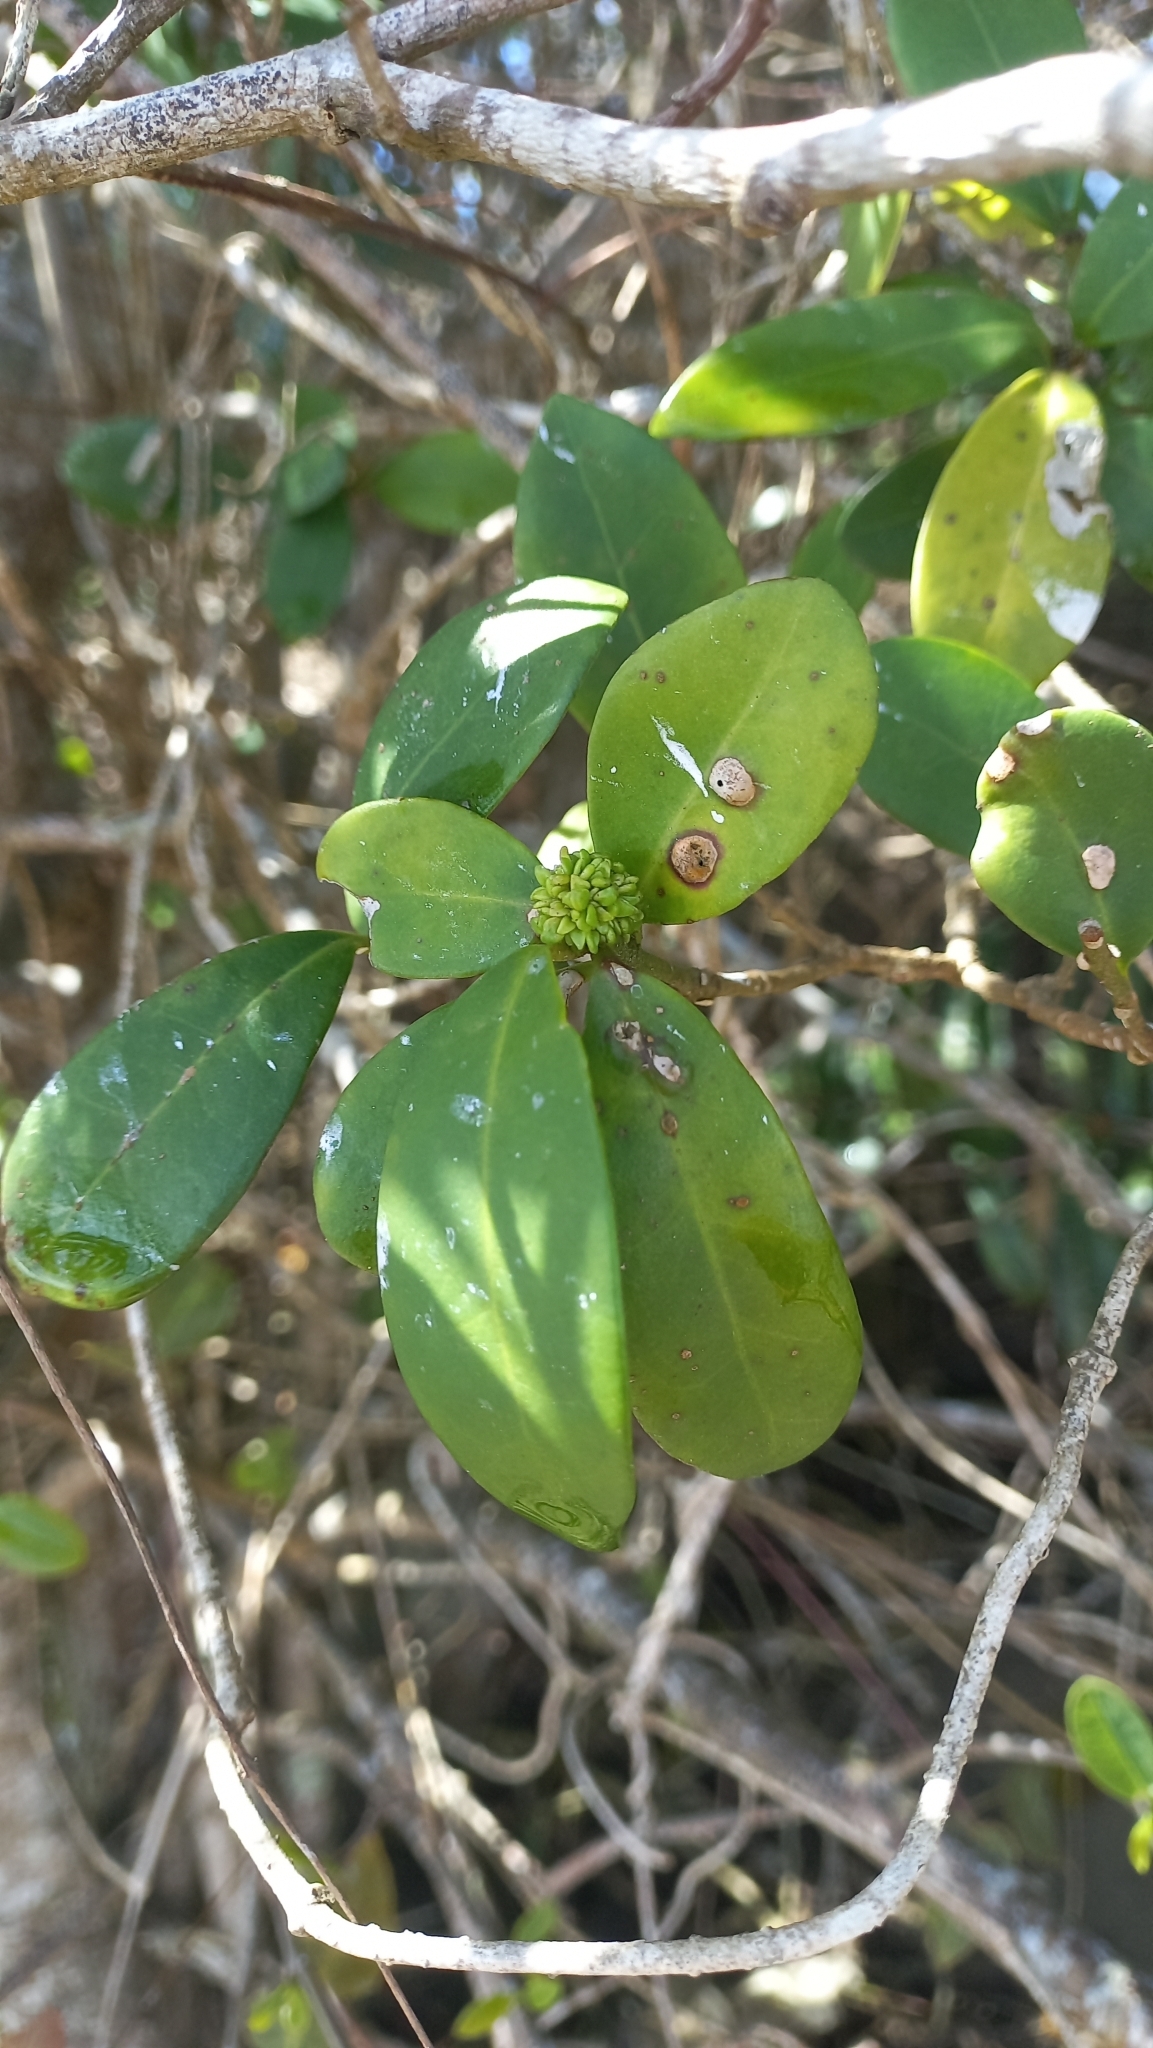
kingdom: Plantae
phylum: Tracheophyta
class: Magnoliopsida
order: Caryophyllales
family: Nyctaginaceae
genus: Guapira
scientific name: Guapira opposita
